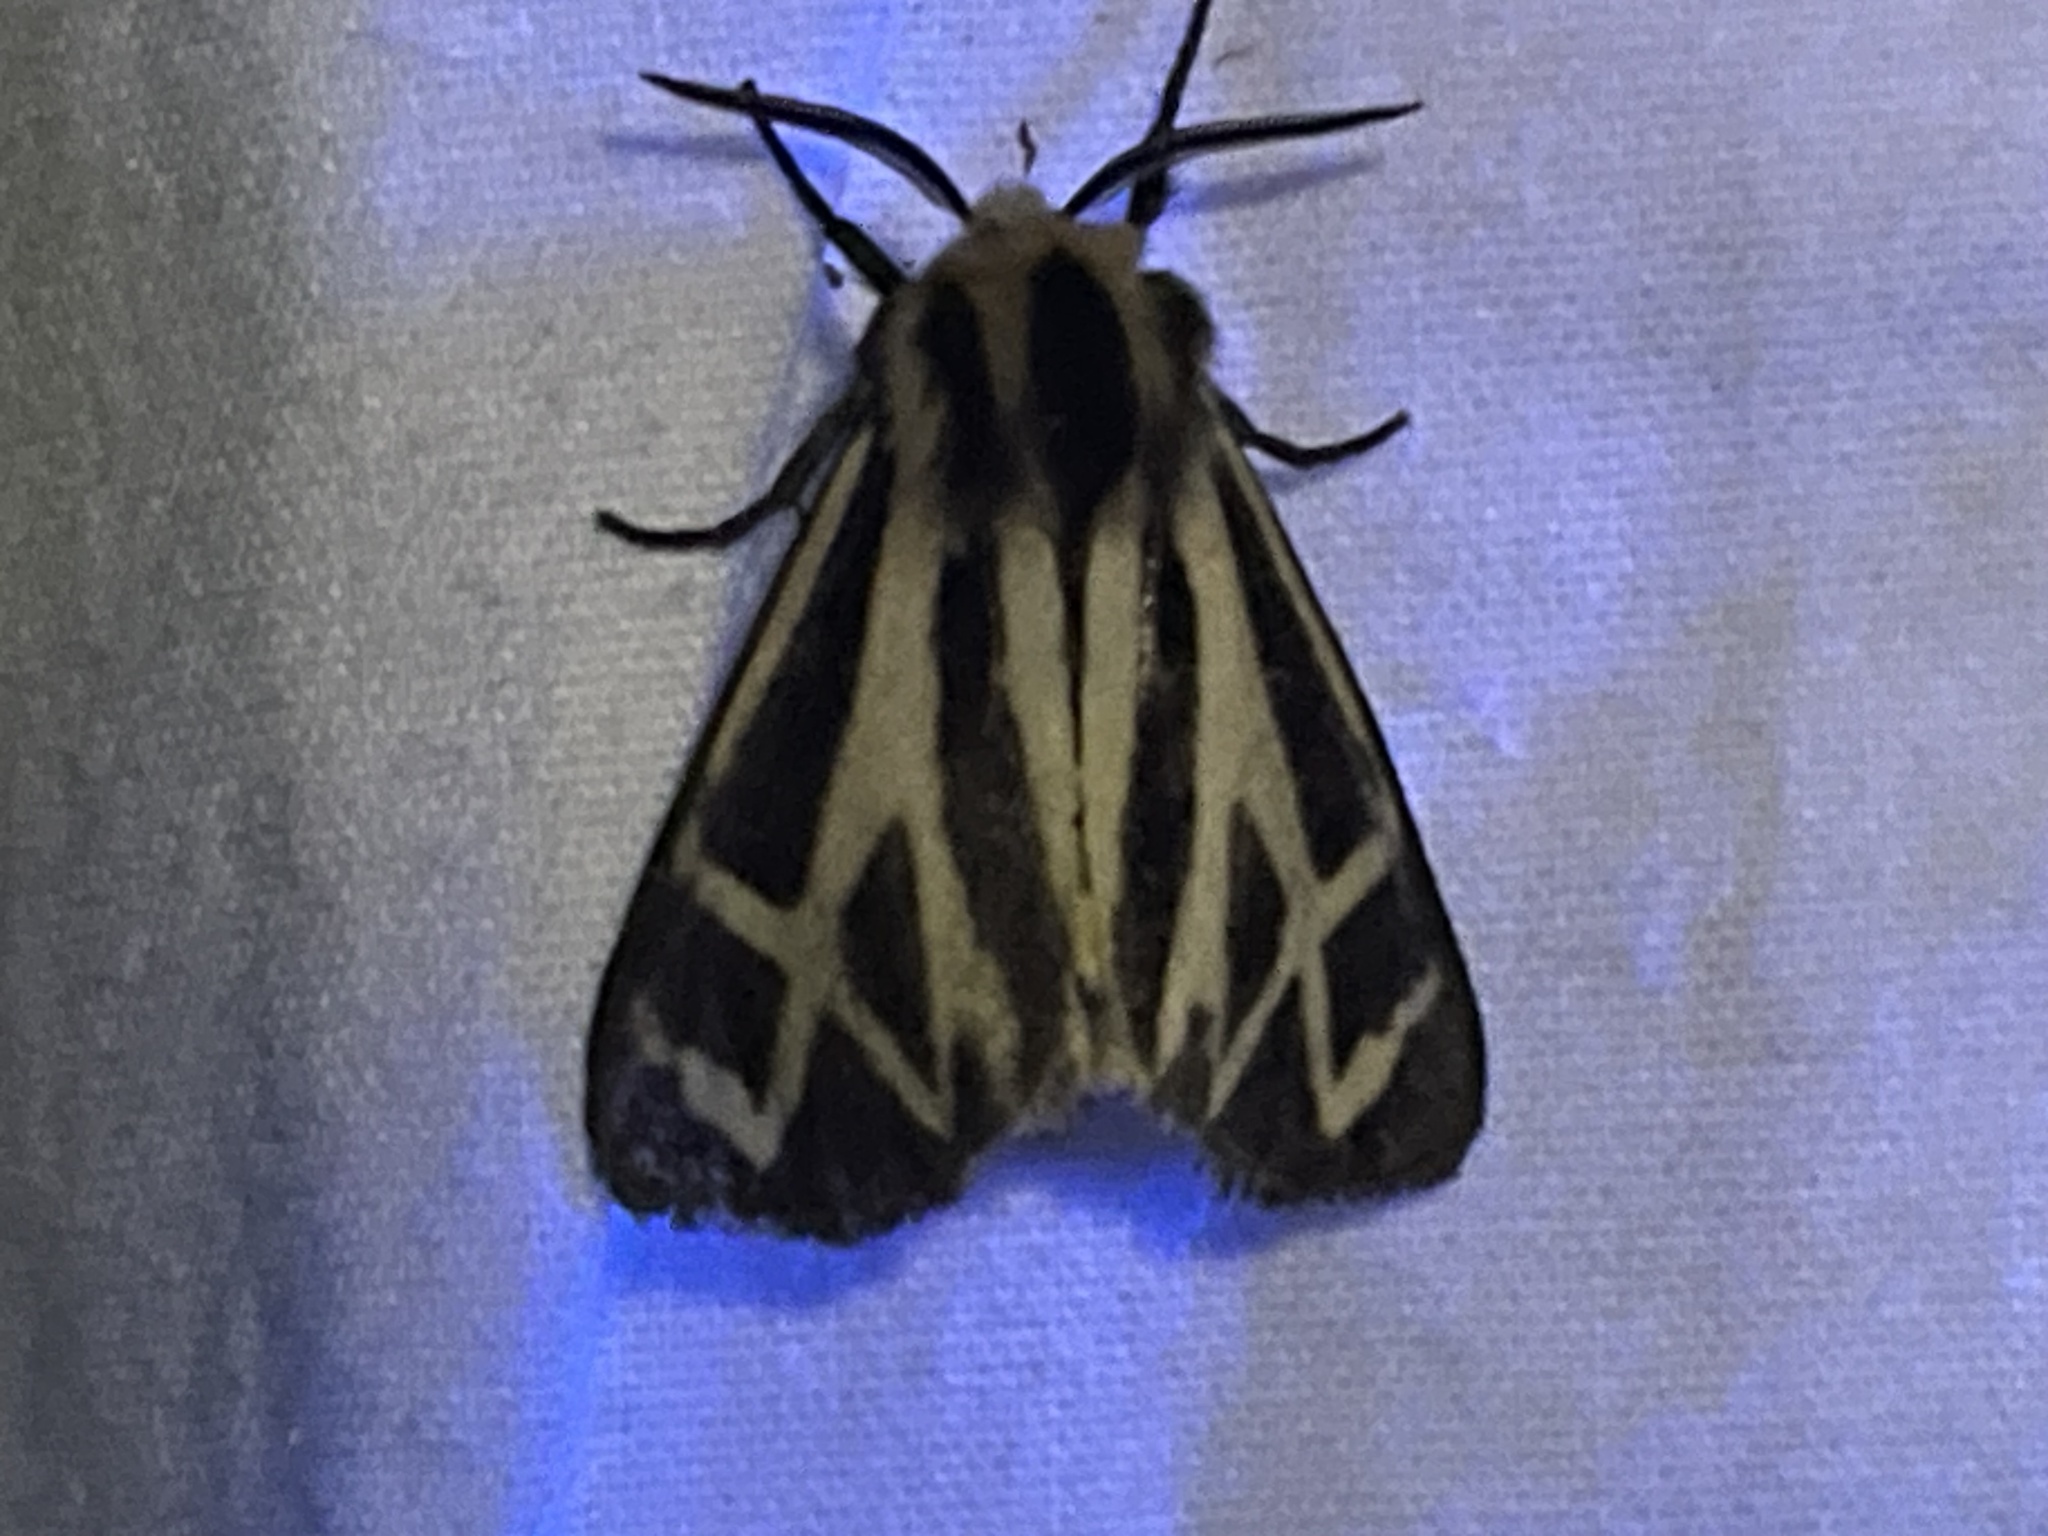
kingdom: Animalia
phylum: Arthropoda
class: Insecta
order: Lepidoptera
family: Erebidae
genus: Apantesis
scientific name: Apantesis carlotta
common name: Carlotta's tiger moth
